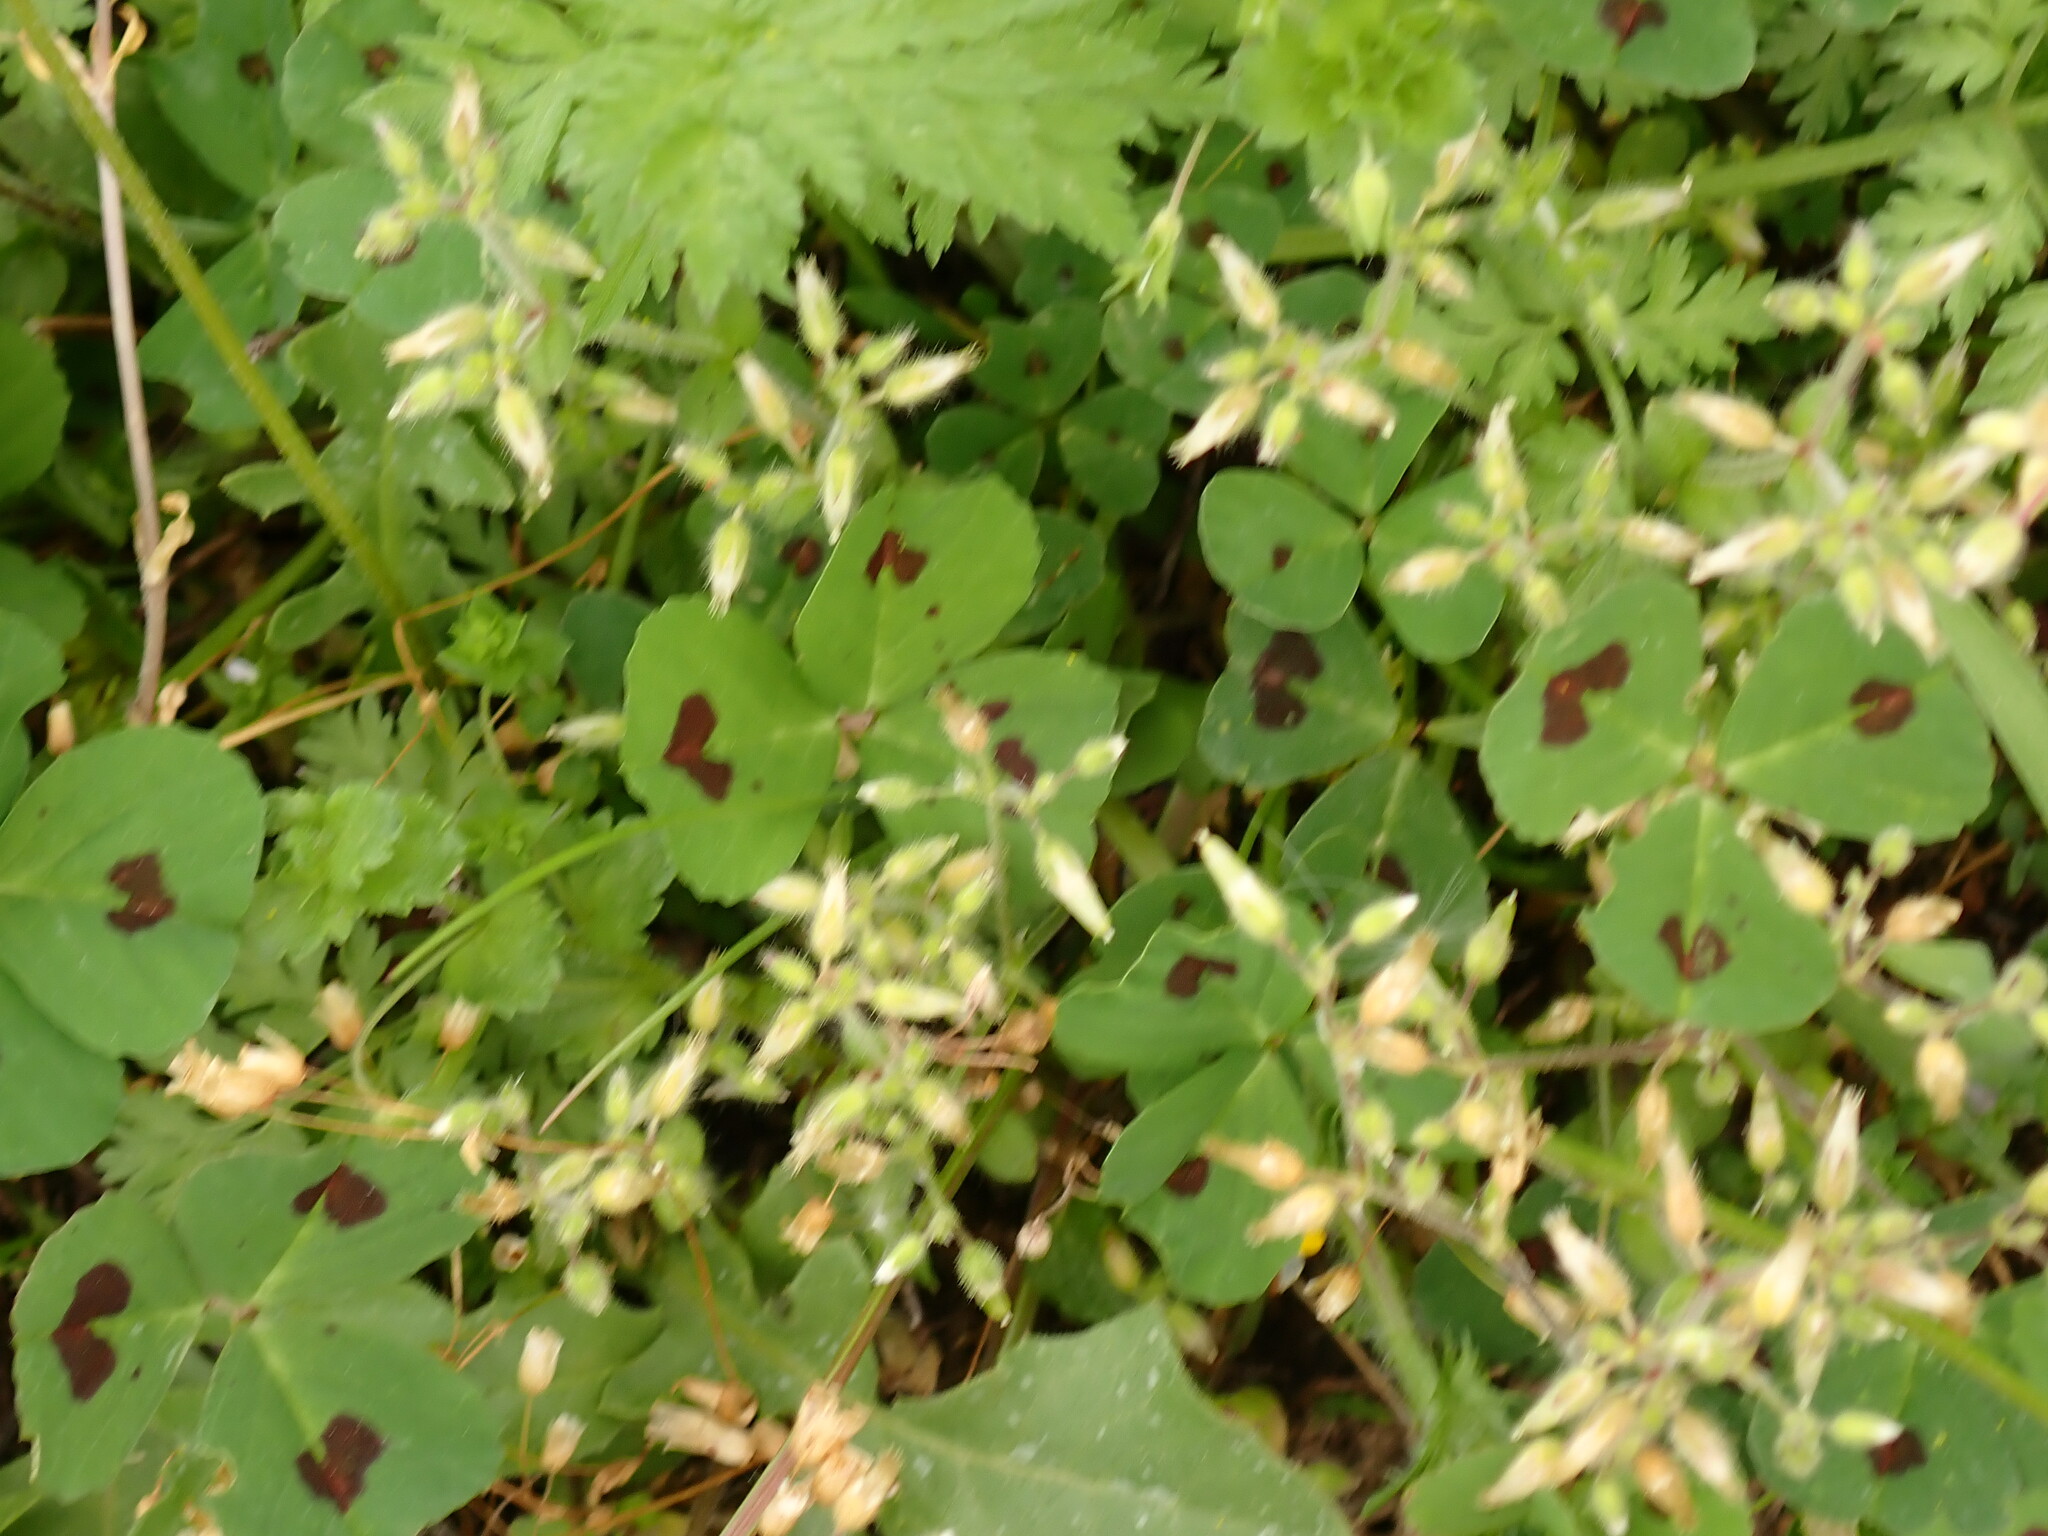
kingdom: Plantae
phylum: Tracheophyta
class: Magnoliopsida
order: Fabales
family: Fabaceae
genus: Medicago
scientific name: Medicago arabica
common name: Spotted medick
